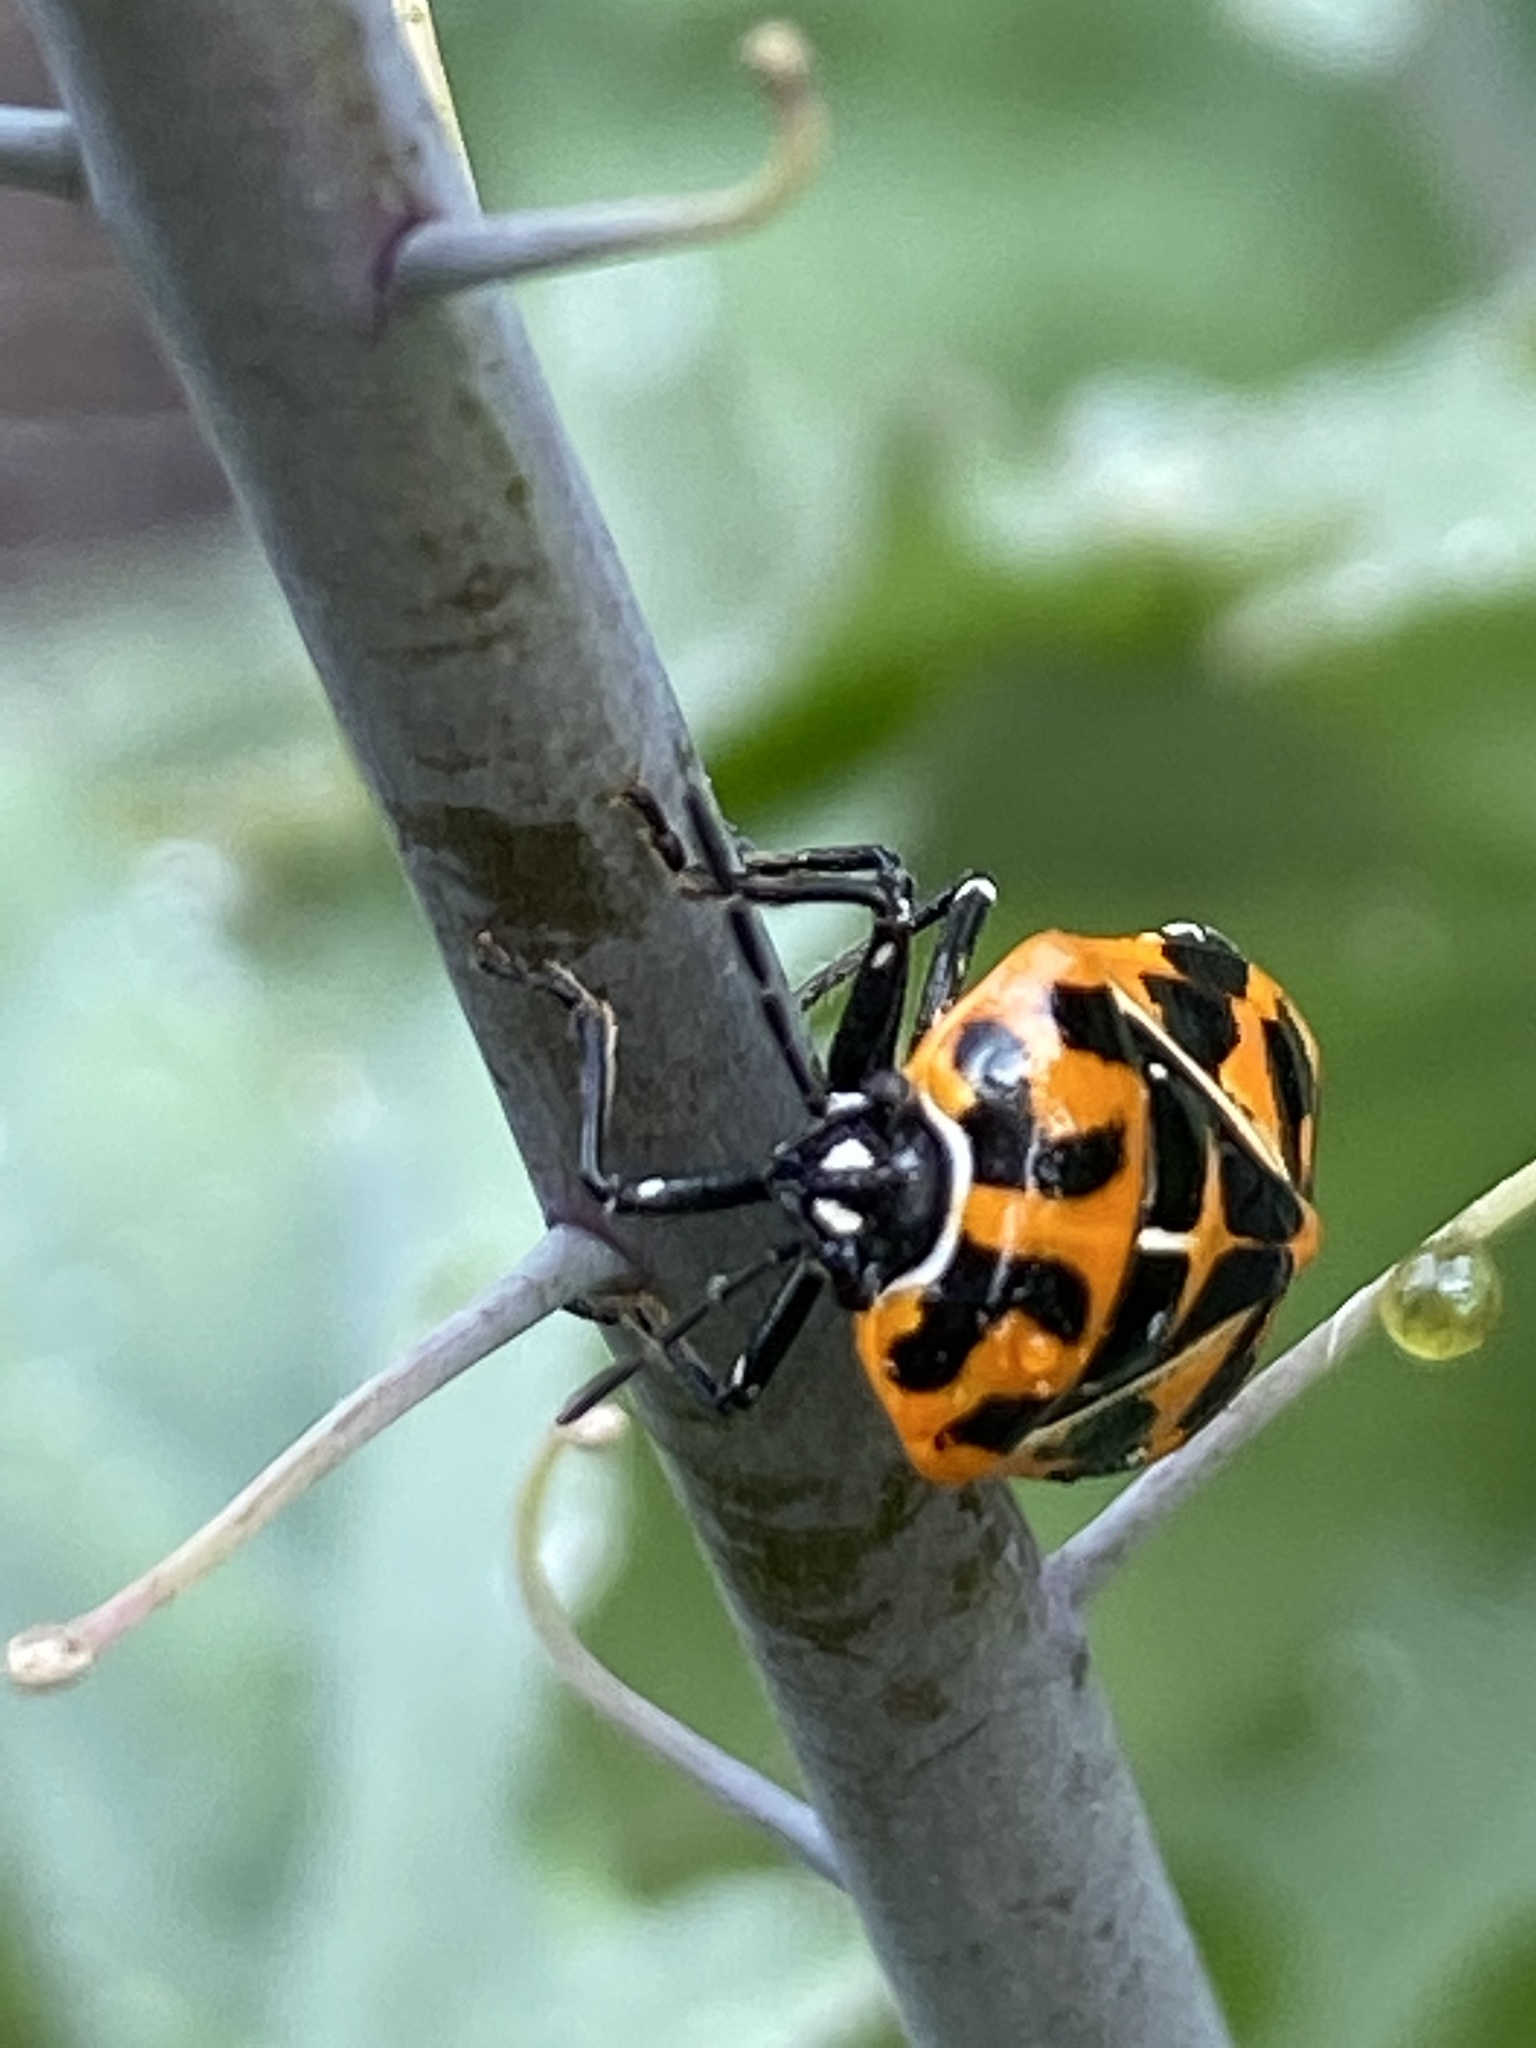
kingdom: Animalia
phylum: Arthropoda
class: Insecta
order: Hemiptera
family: Pentatomidae
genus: Murgantia
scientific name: Murgantia histrionica
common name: Harlequin bug
